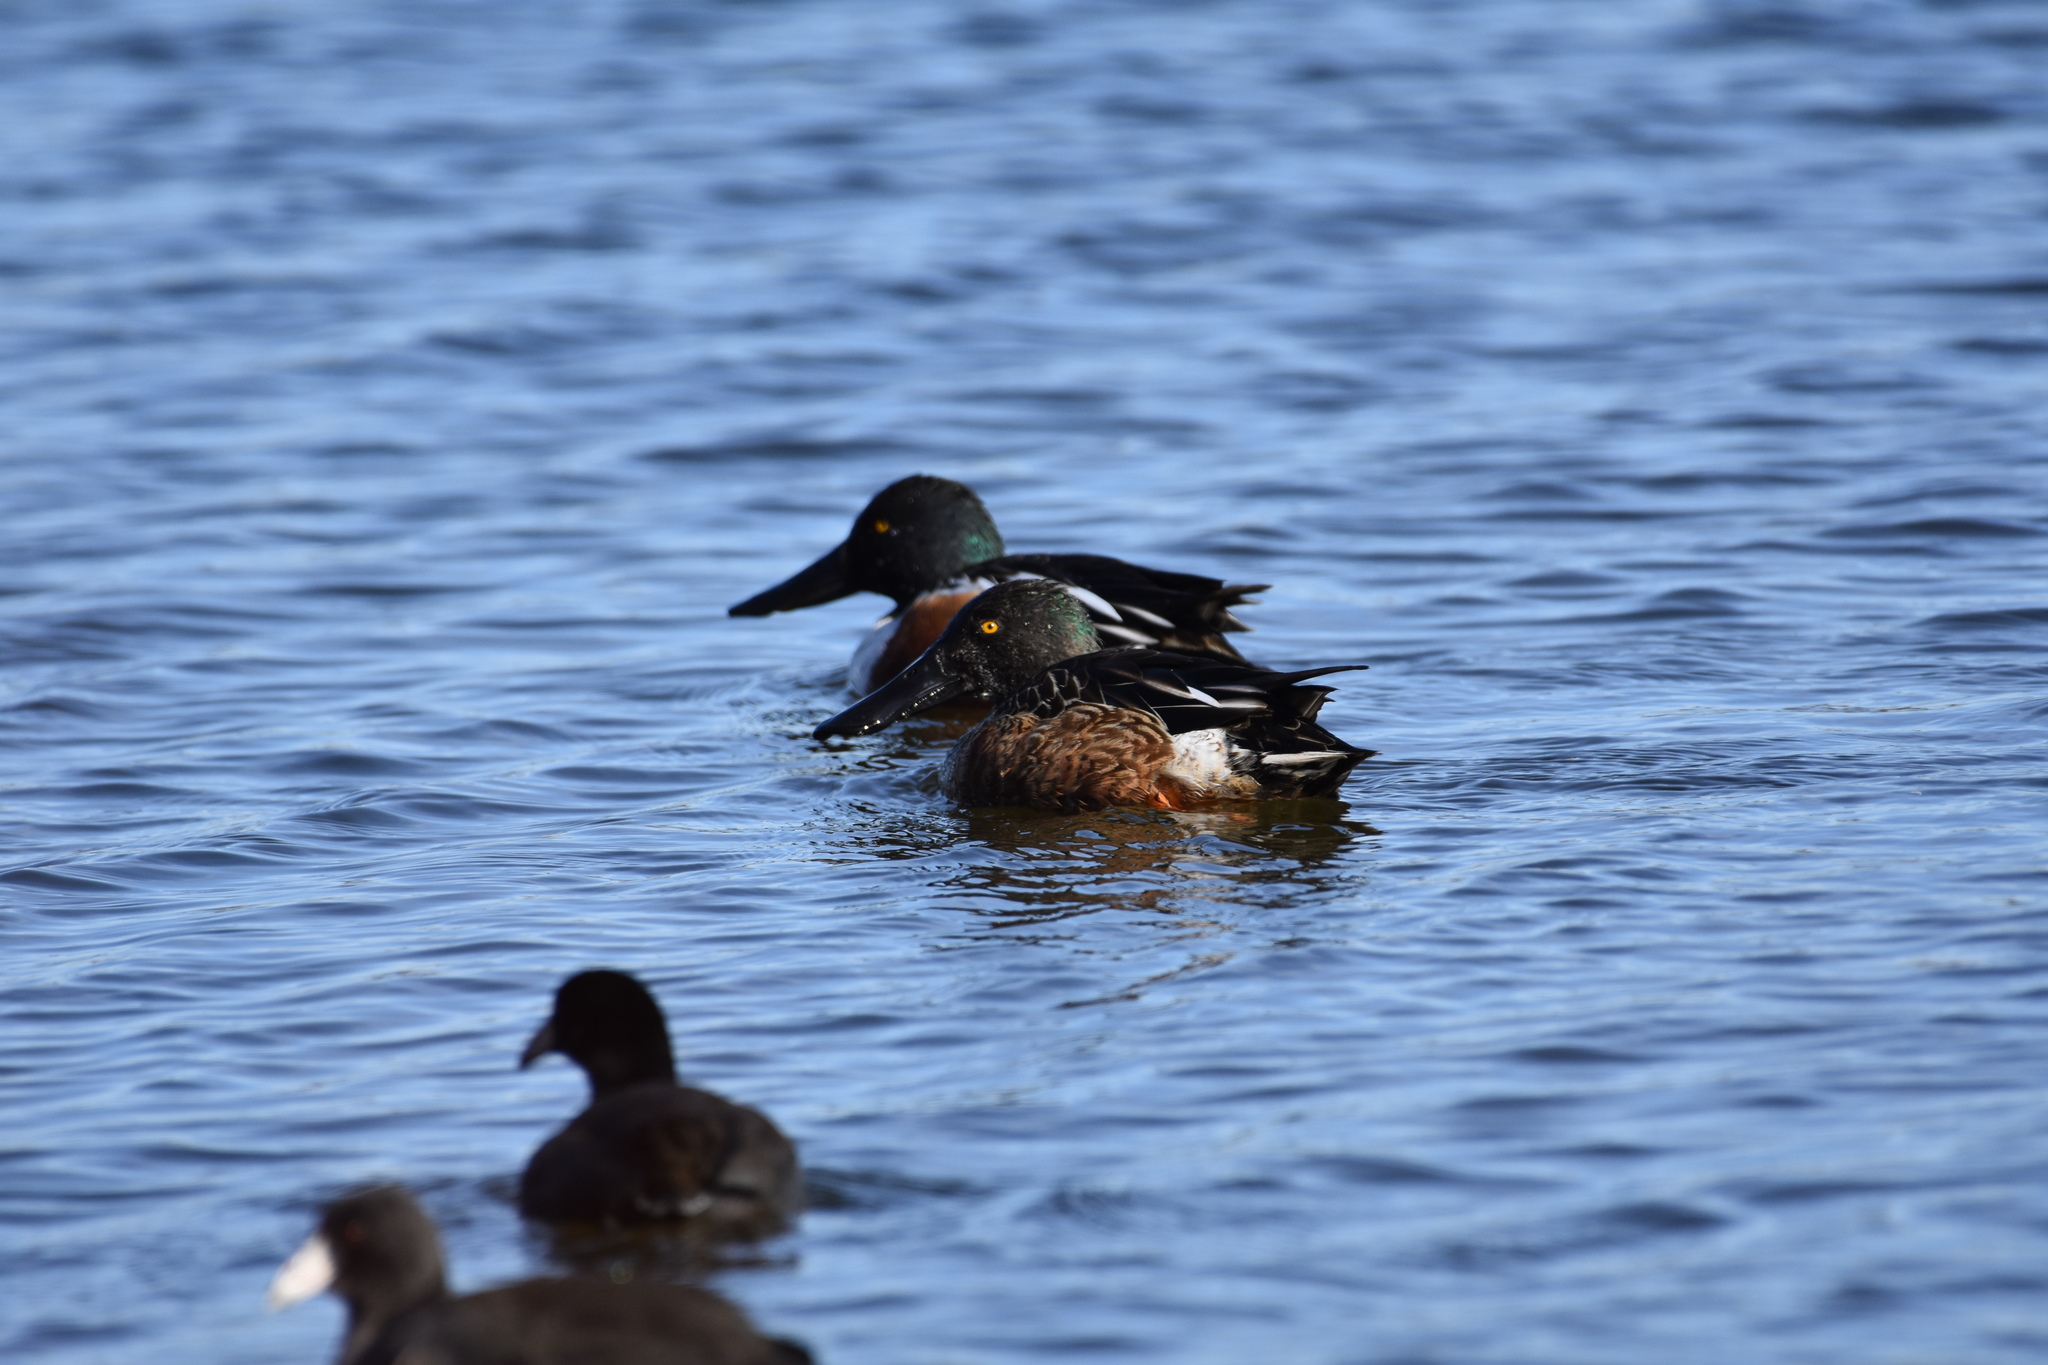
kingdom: Animalia
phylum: Chordata
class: Aves
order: Anseriformes
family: Anatidae
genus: Spatula
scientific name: Spatula clypeata
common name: Northern shoveler
